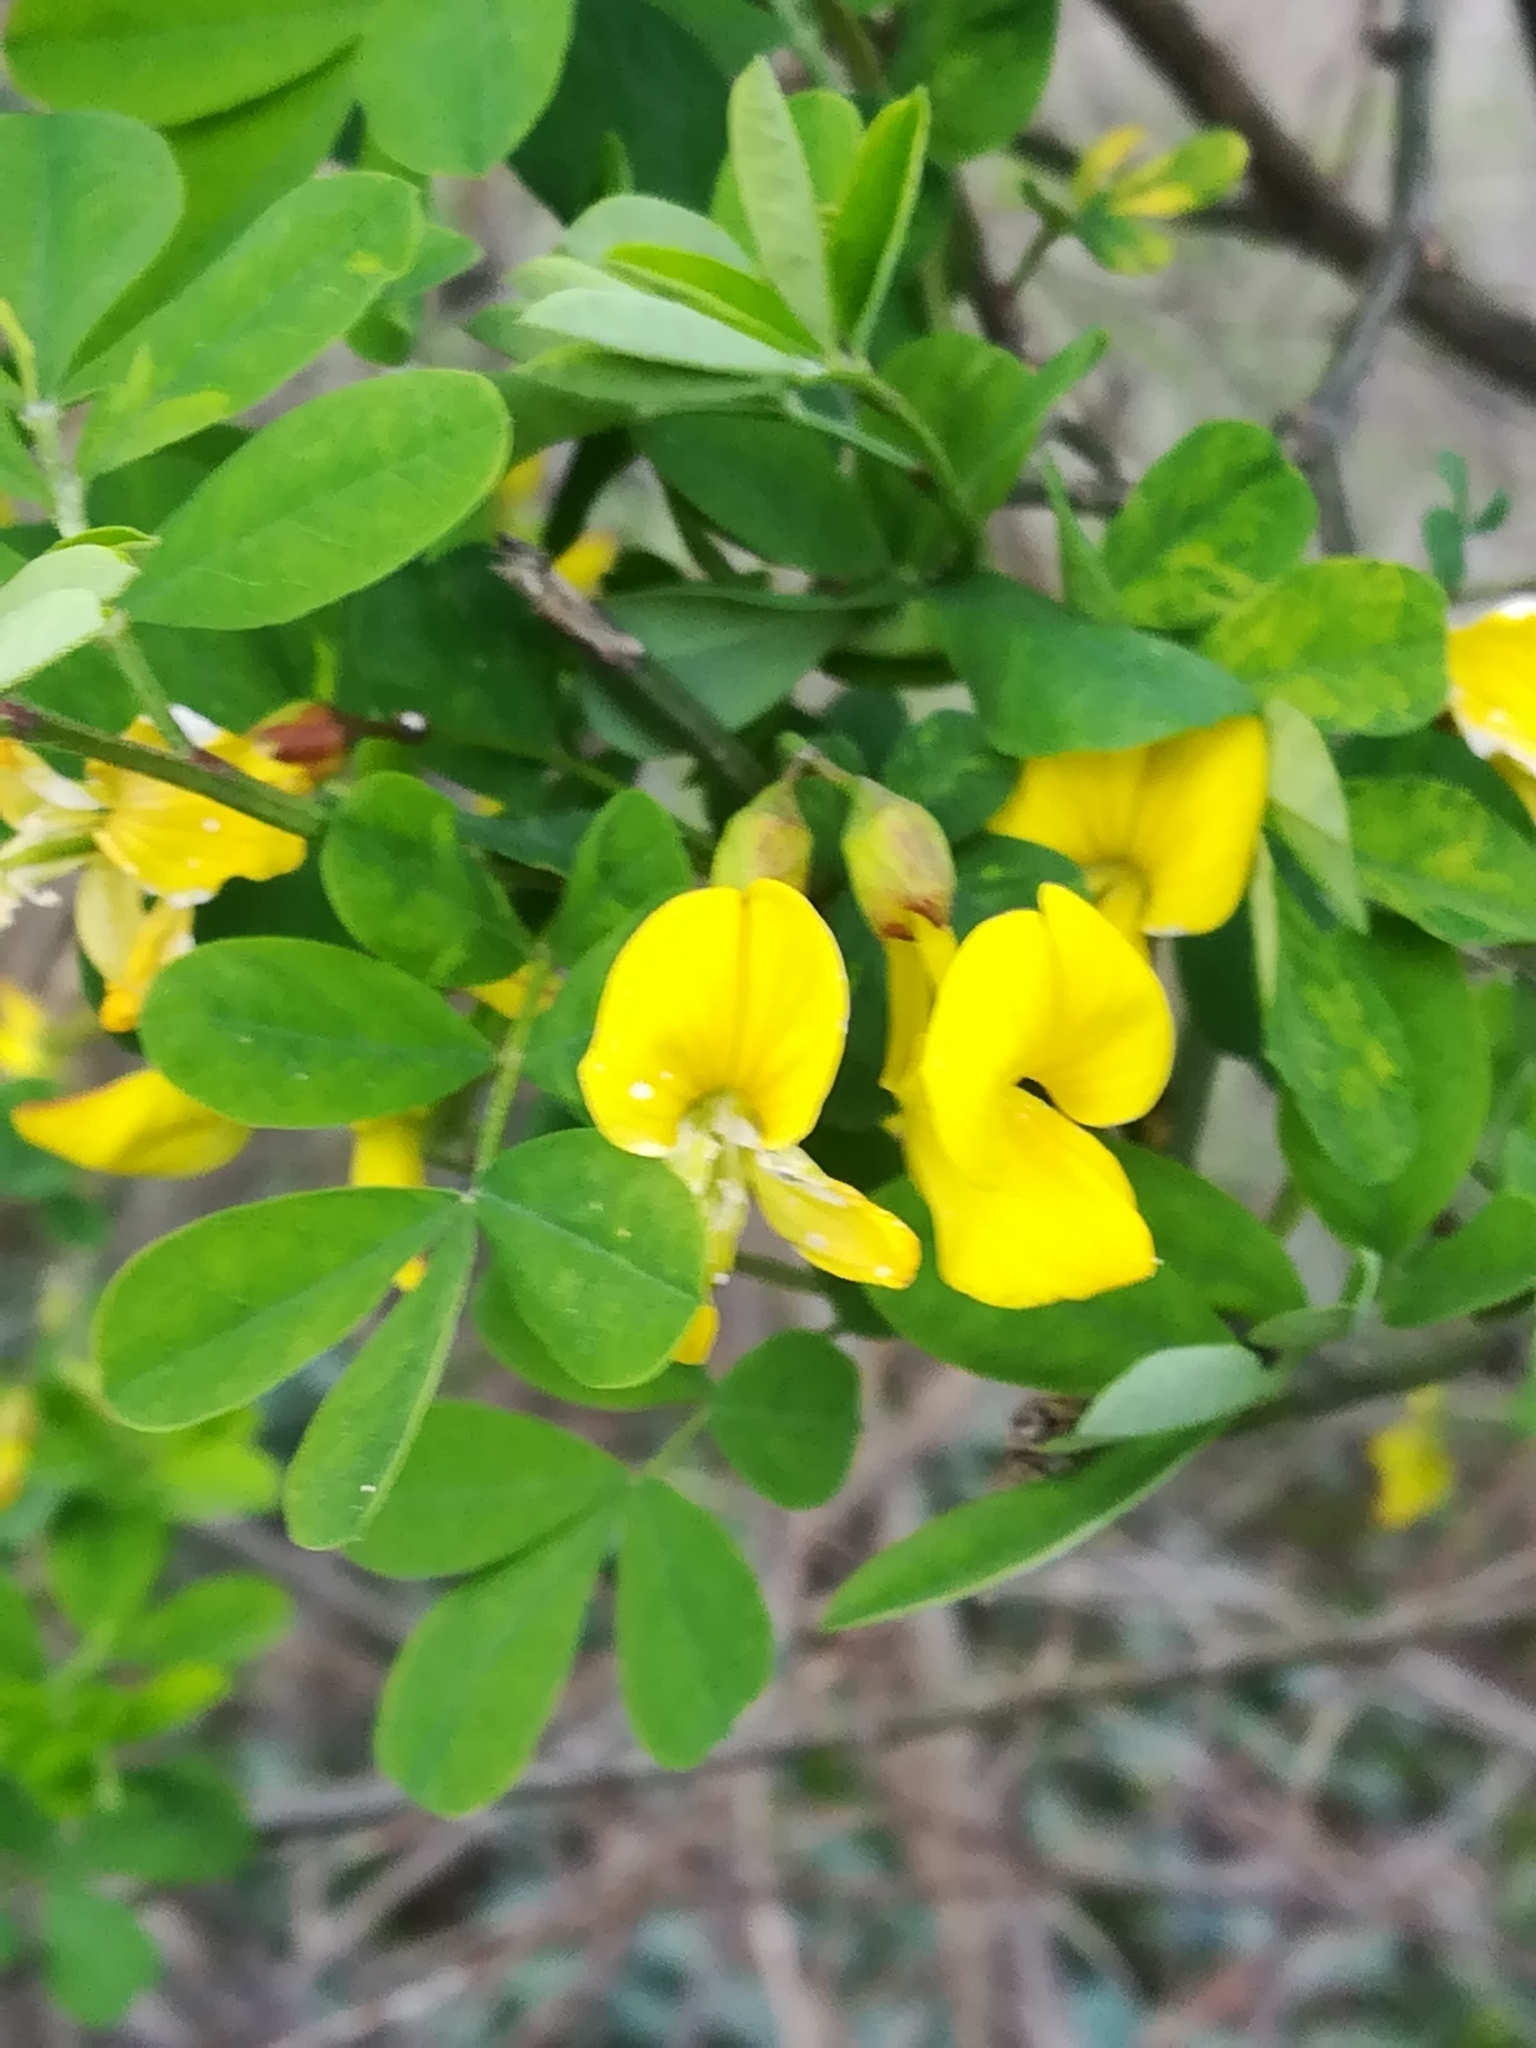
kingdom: Plantae
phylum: Tracheophyta
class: Magnoliopsida
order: Fabales
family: Fabaceae
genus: Hippocrepis
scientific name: Hippocrepis emerus
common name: Scorpion senna
